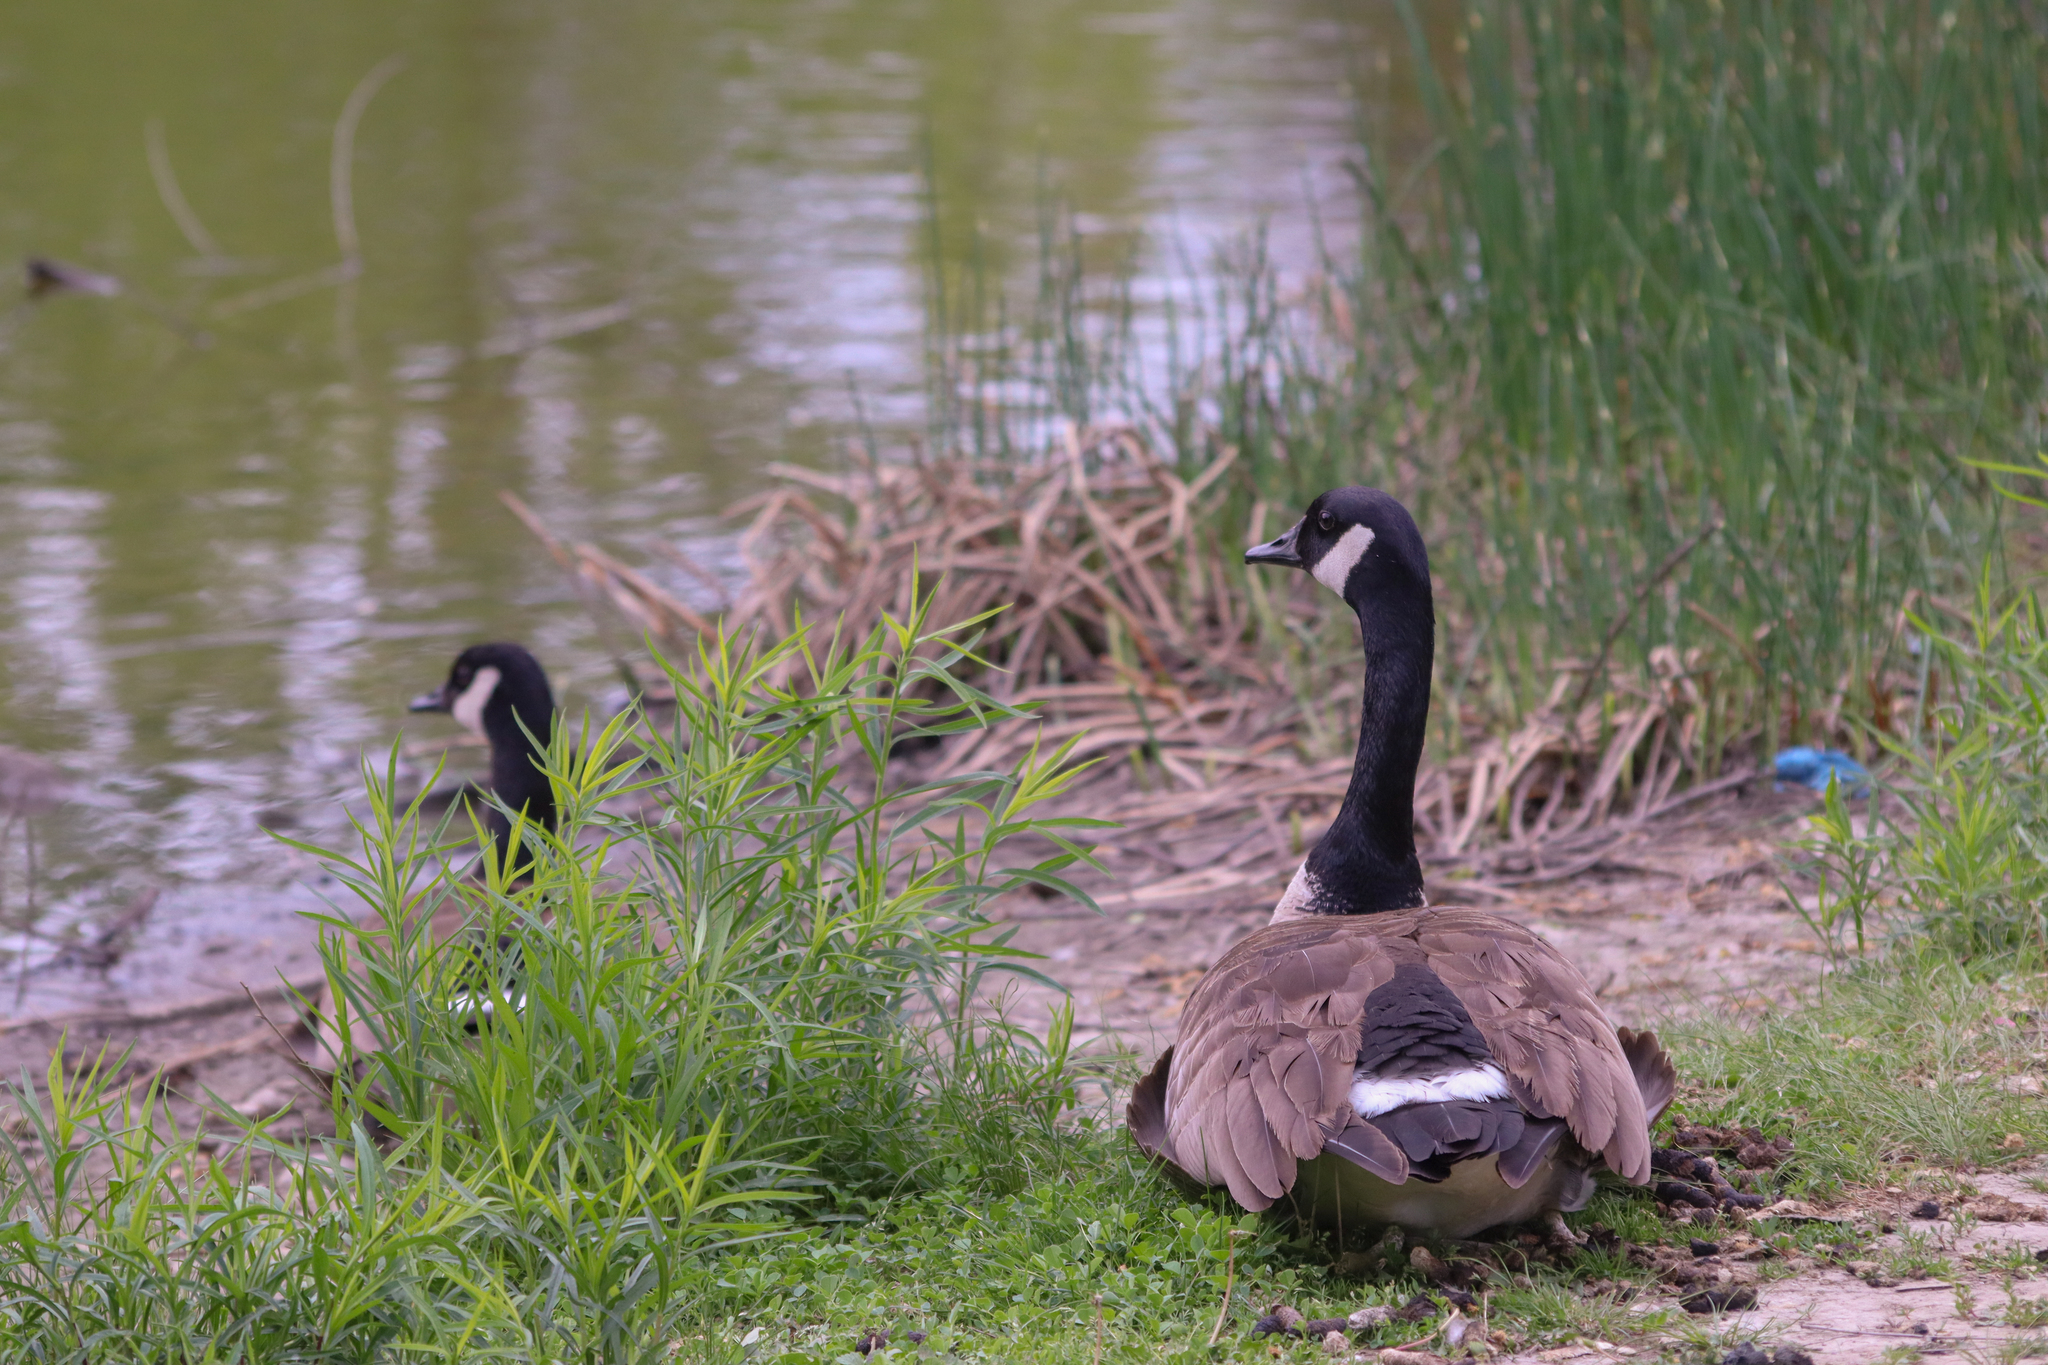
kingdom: Animalia
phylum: Chordata
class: Aves
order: Anseriformes
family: Anatidae
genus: Branta
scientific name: Branta canadensis
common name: Canada goose
